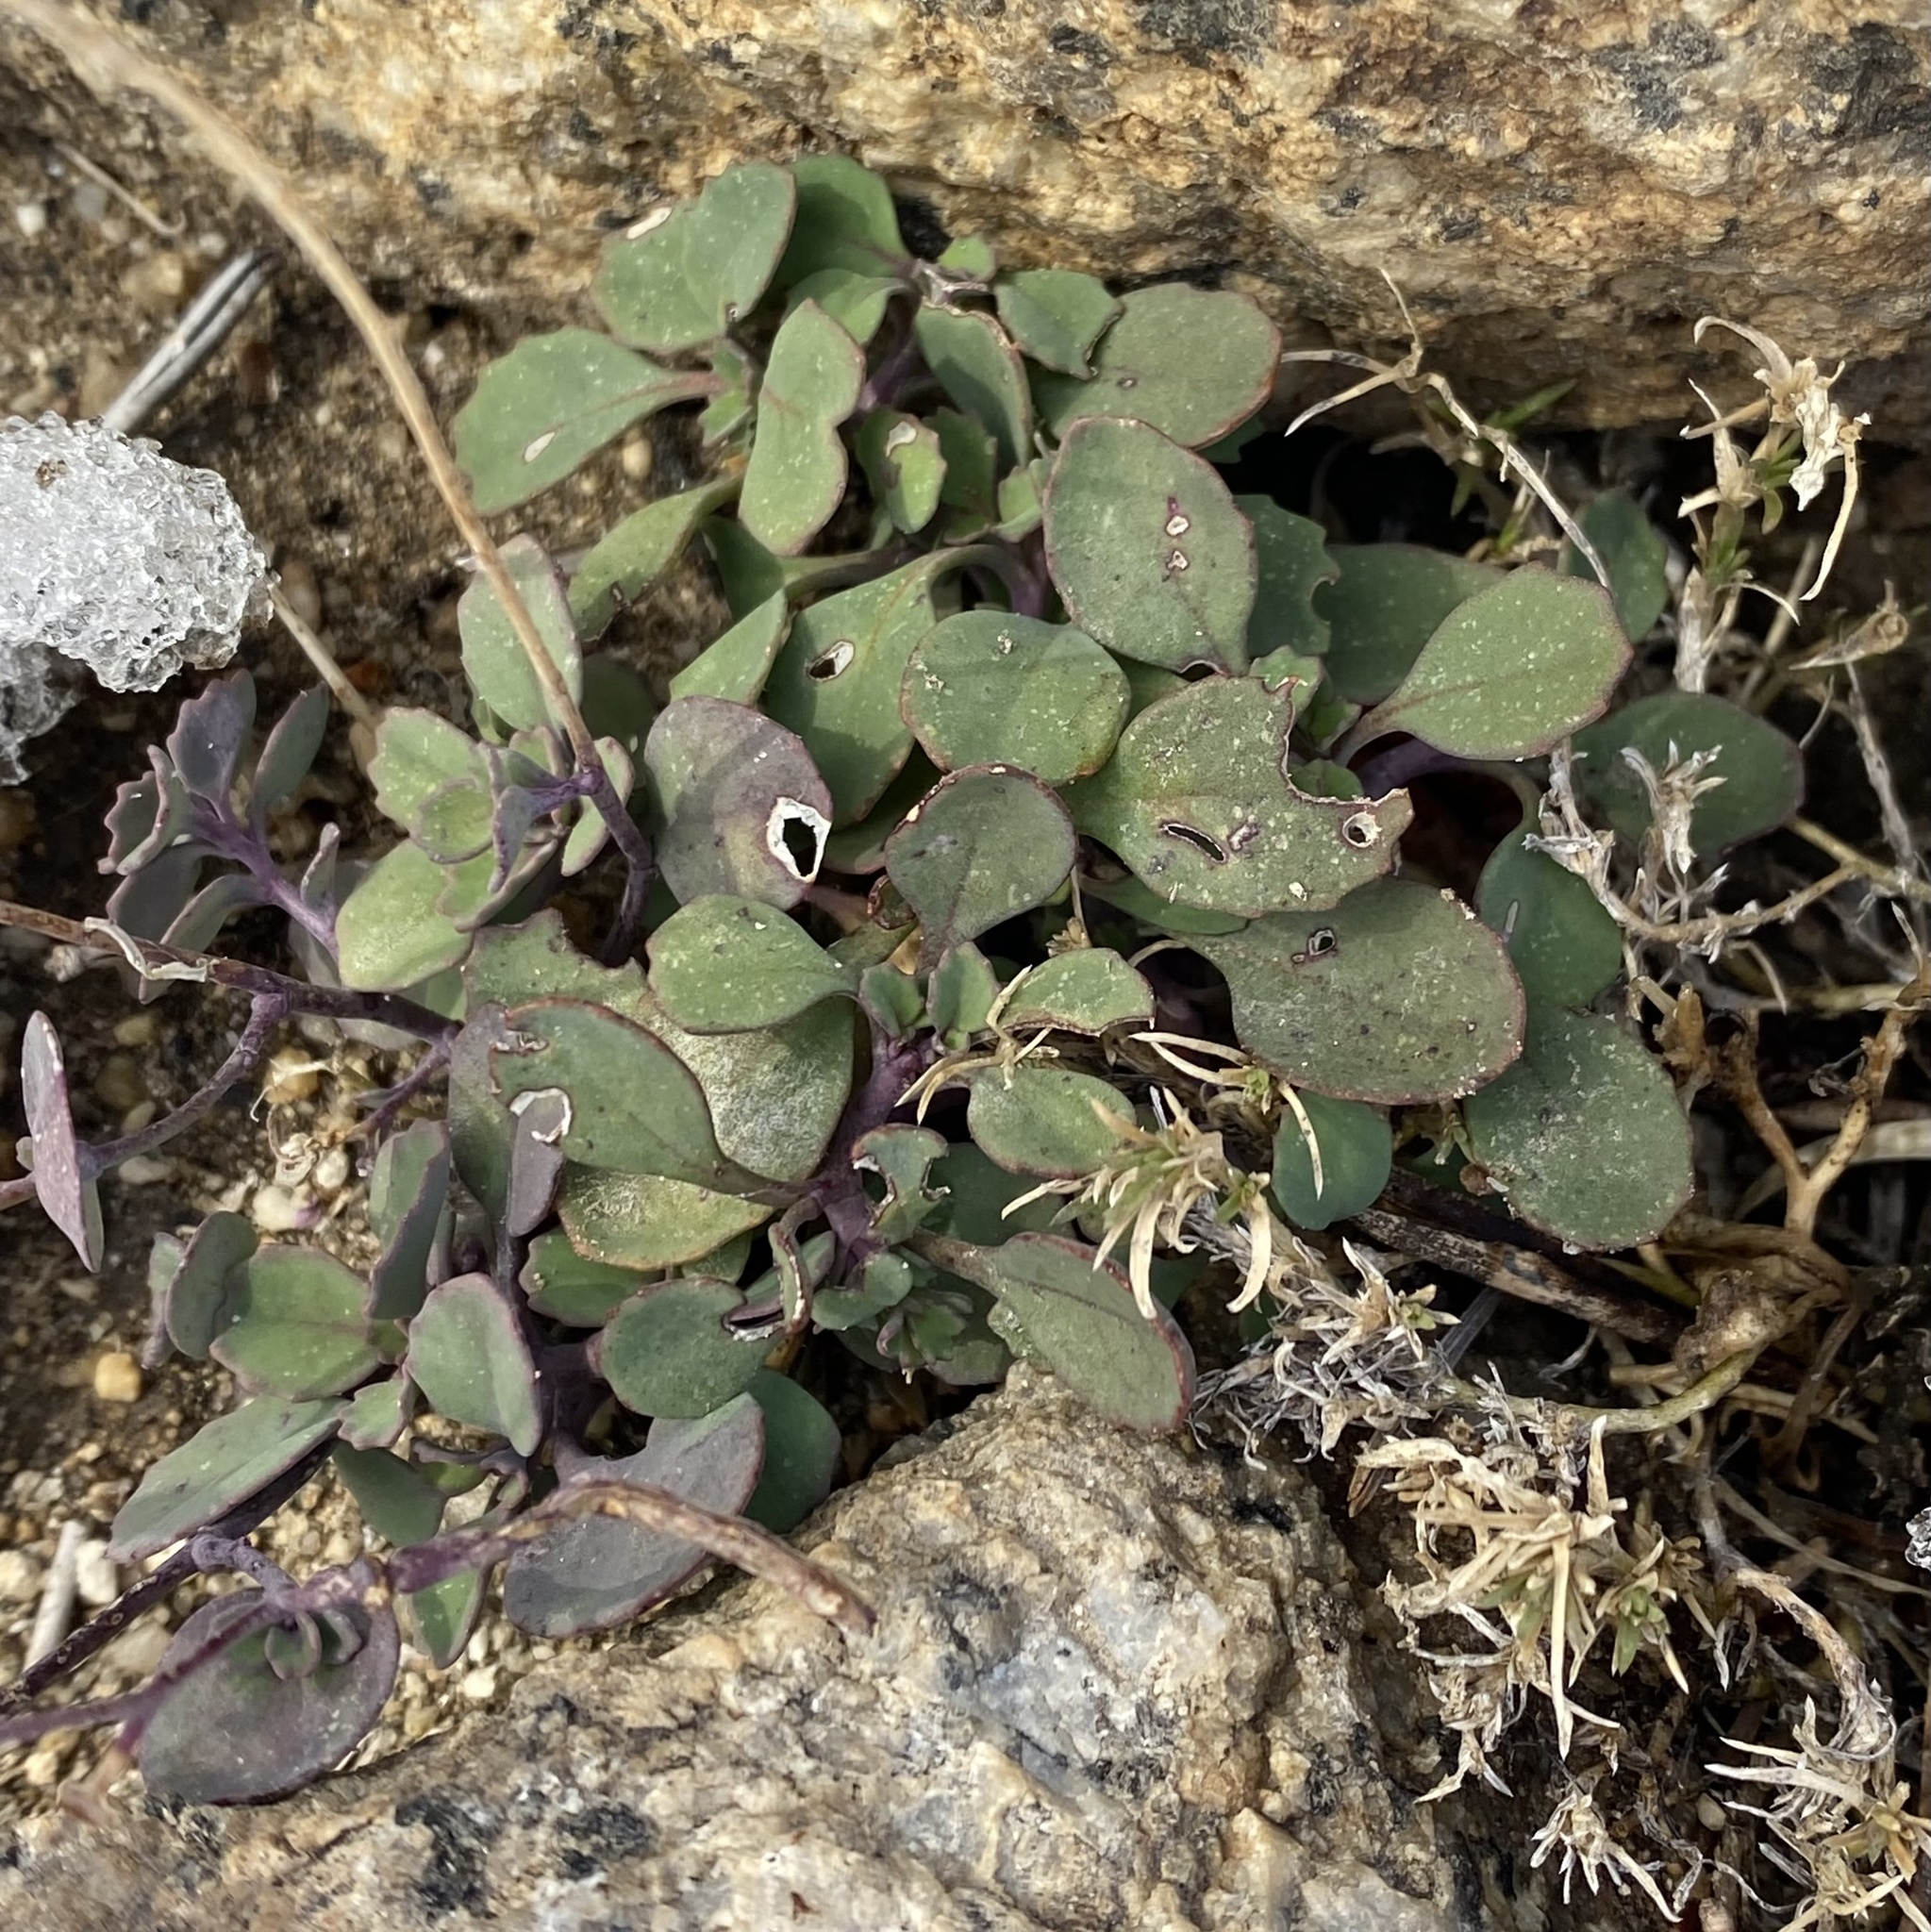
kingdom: Plantae
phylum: Tracheophyta
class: Magnoliopsida
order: Brassicales
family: Brassicaceae
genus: Streptanthus
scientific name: Streptanthus tortuosus
